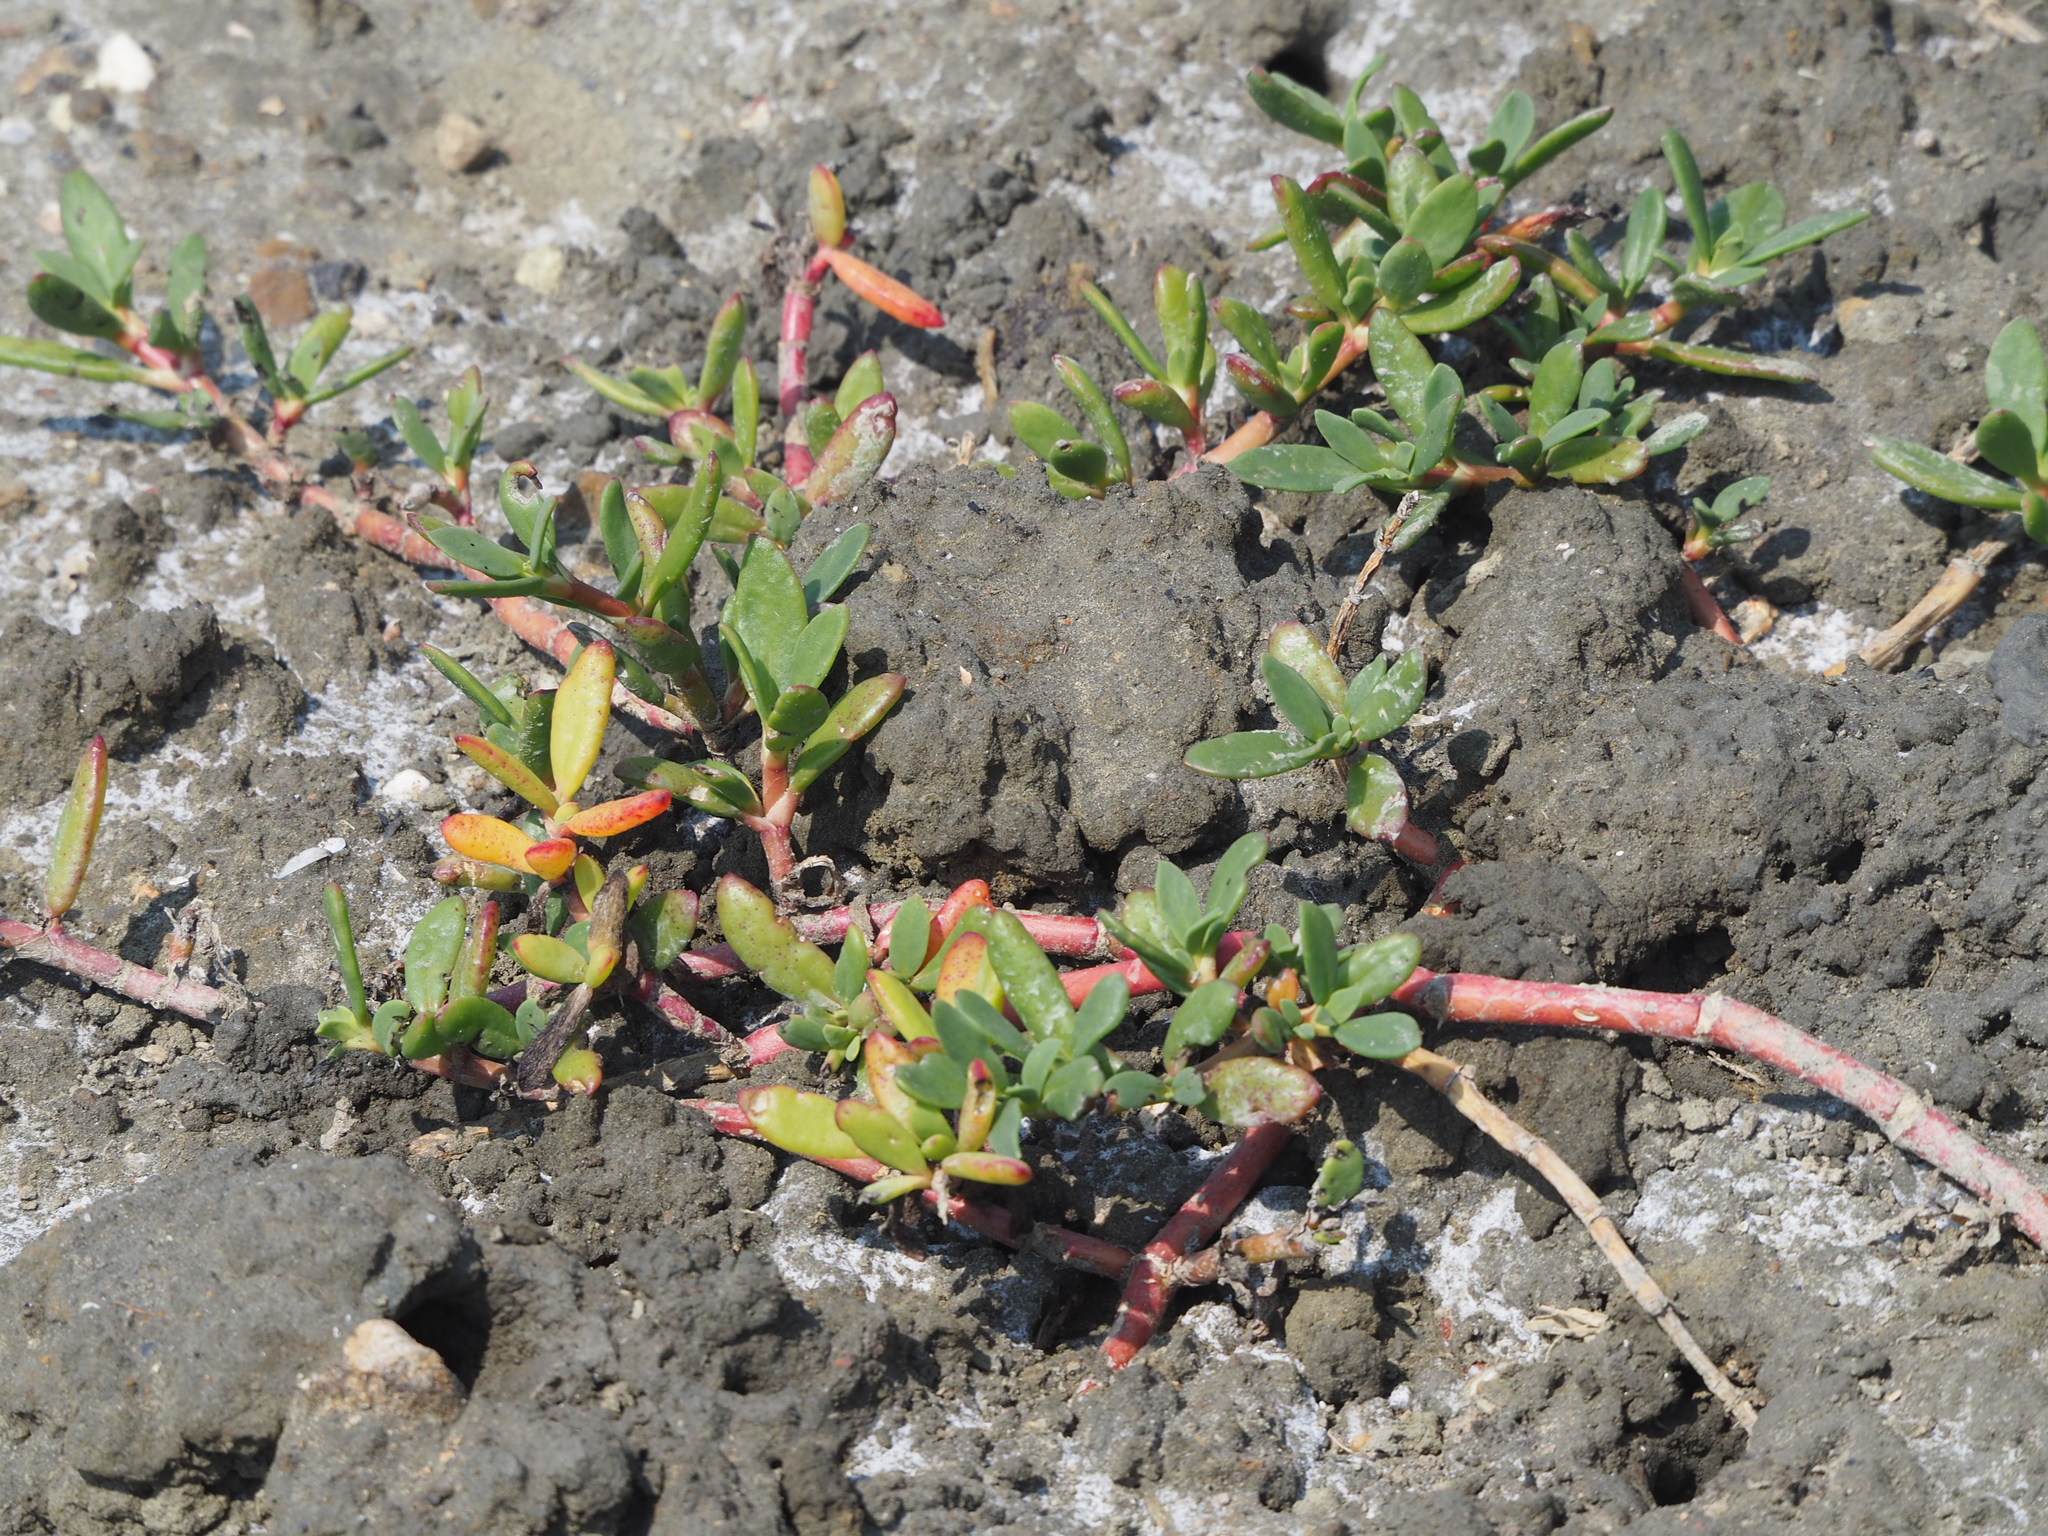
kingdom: Plantae
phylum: Tracheophyta
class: Magnoliopsida
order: Caryophyllales
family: Aizoaceae
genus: Sesuvium
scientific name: Sesuvium portulacastrum
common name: Sea-purslane
